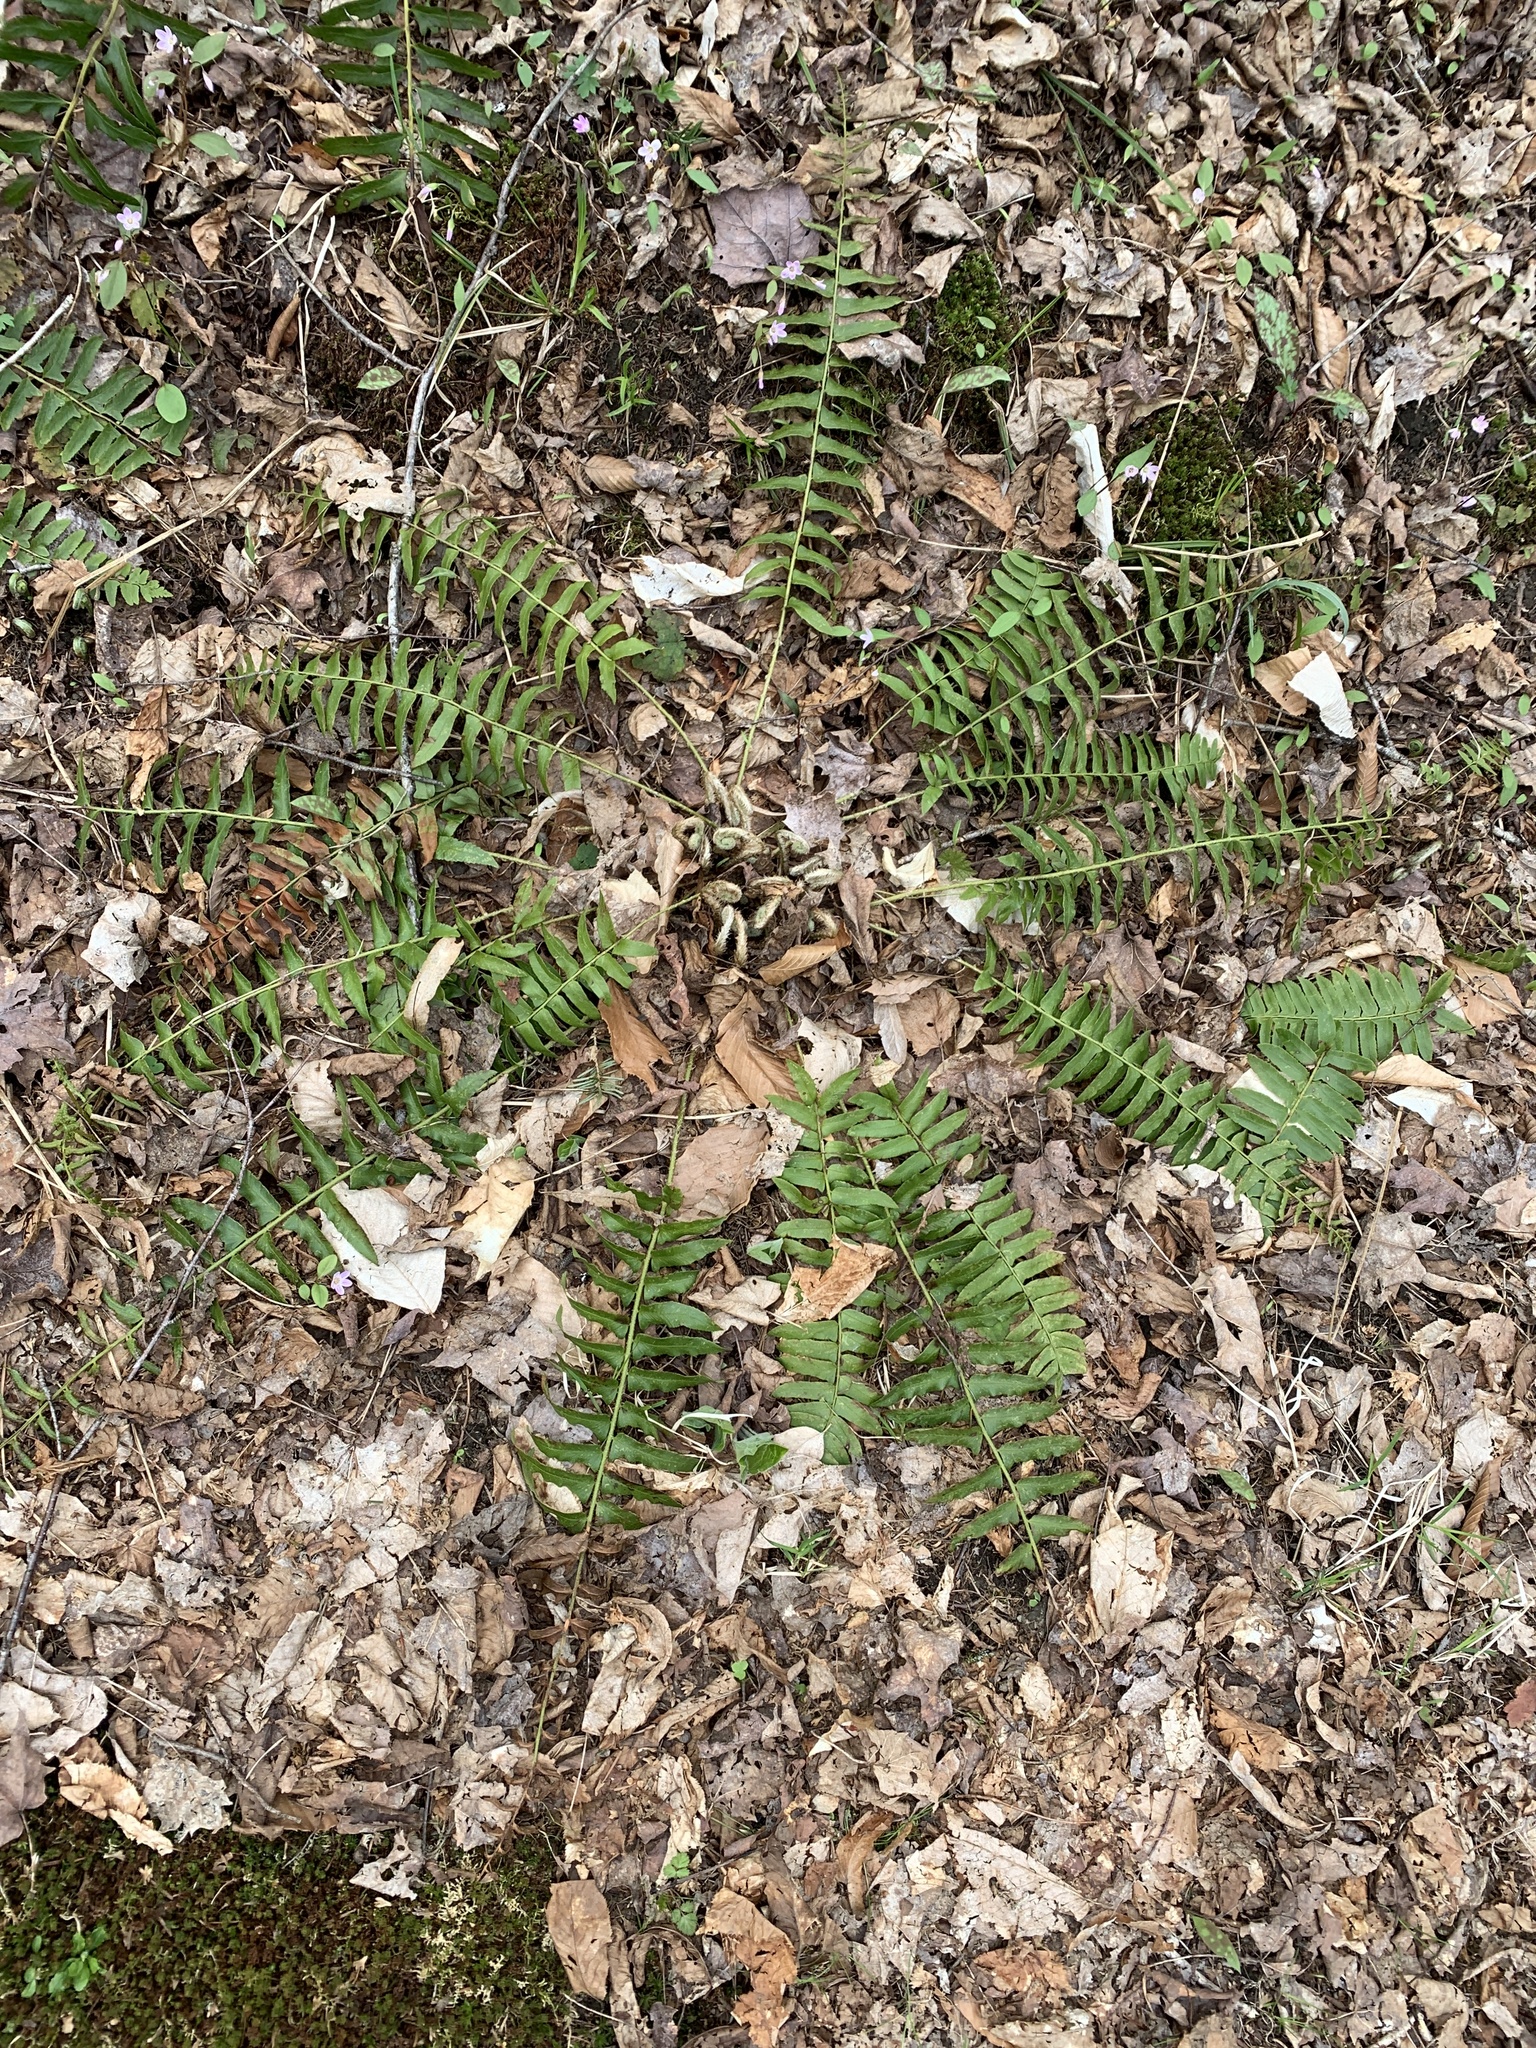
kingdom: Plantae
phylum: Tracheophyta
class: Polypodiopsida
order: Polypodiales
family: Dryopteridaceae
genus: Polystichum
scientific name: Polystichum acrostichoides
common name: Christmas fern
